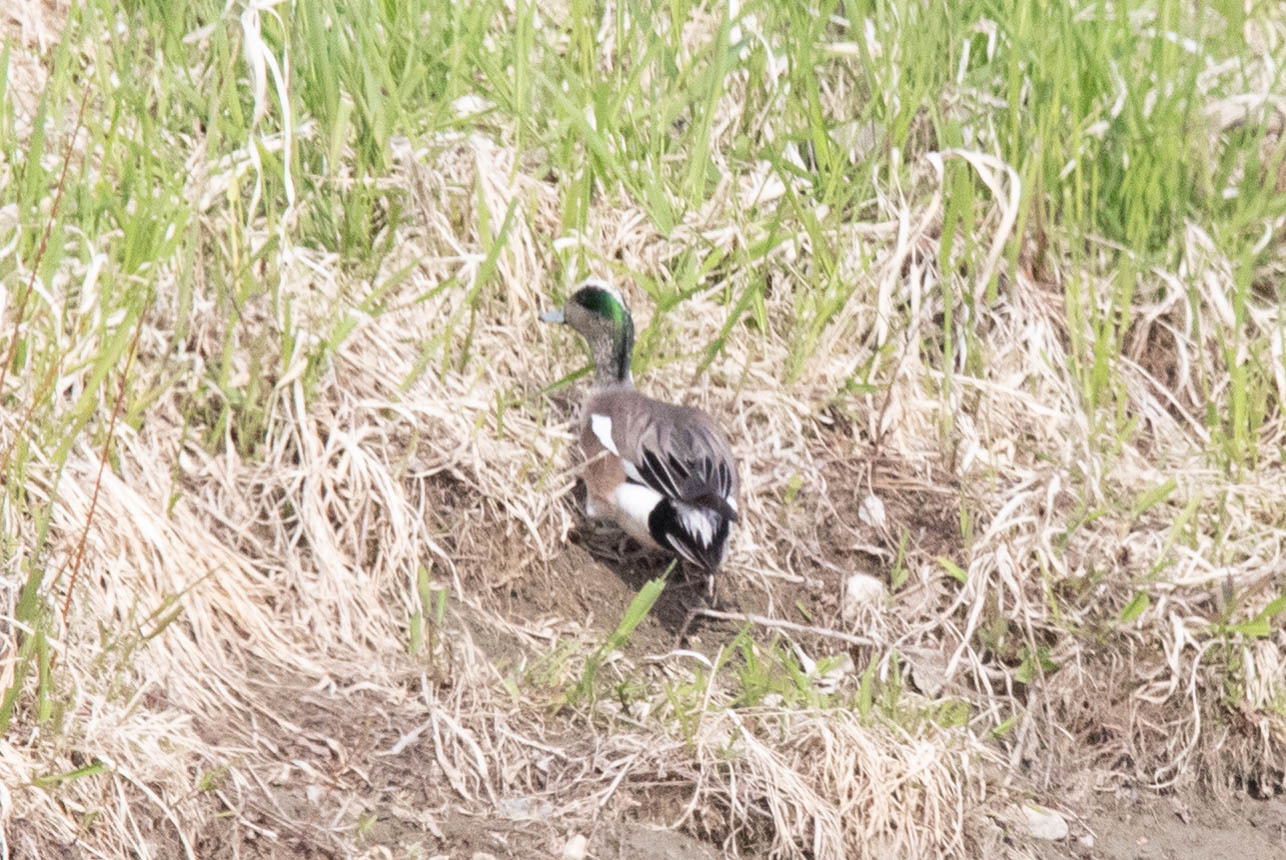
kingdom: Animalia
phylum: Chordata
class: Aves
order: Anseriformes
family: Anatidae
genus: Mareca
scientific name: Mareca americana
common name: American wigeon
